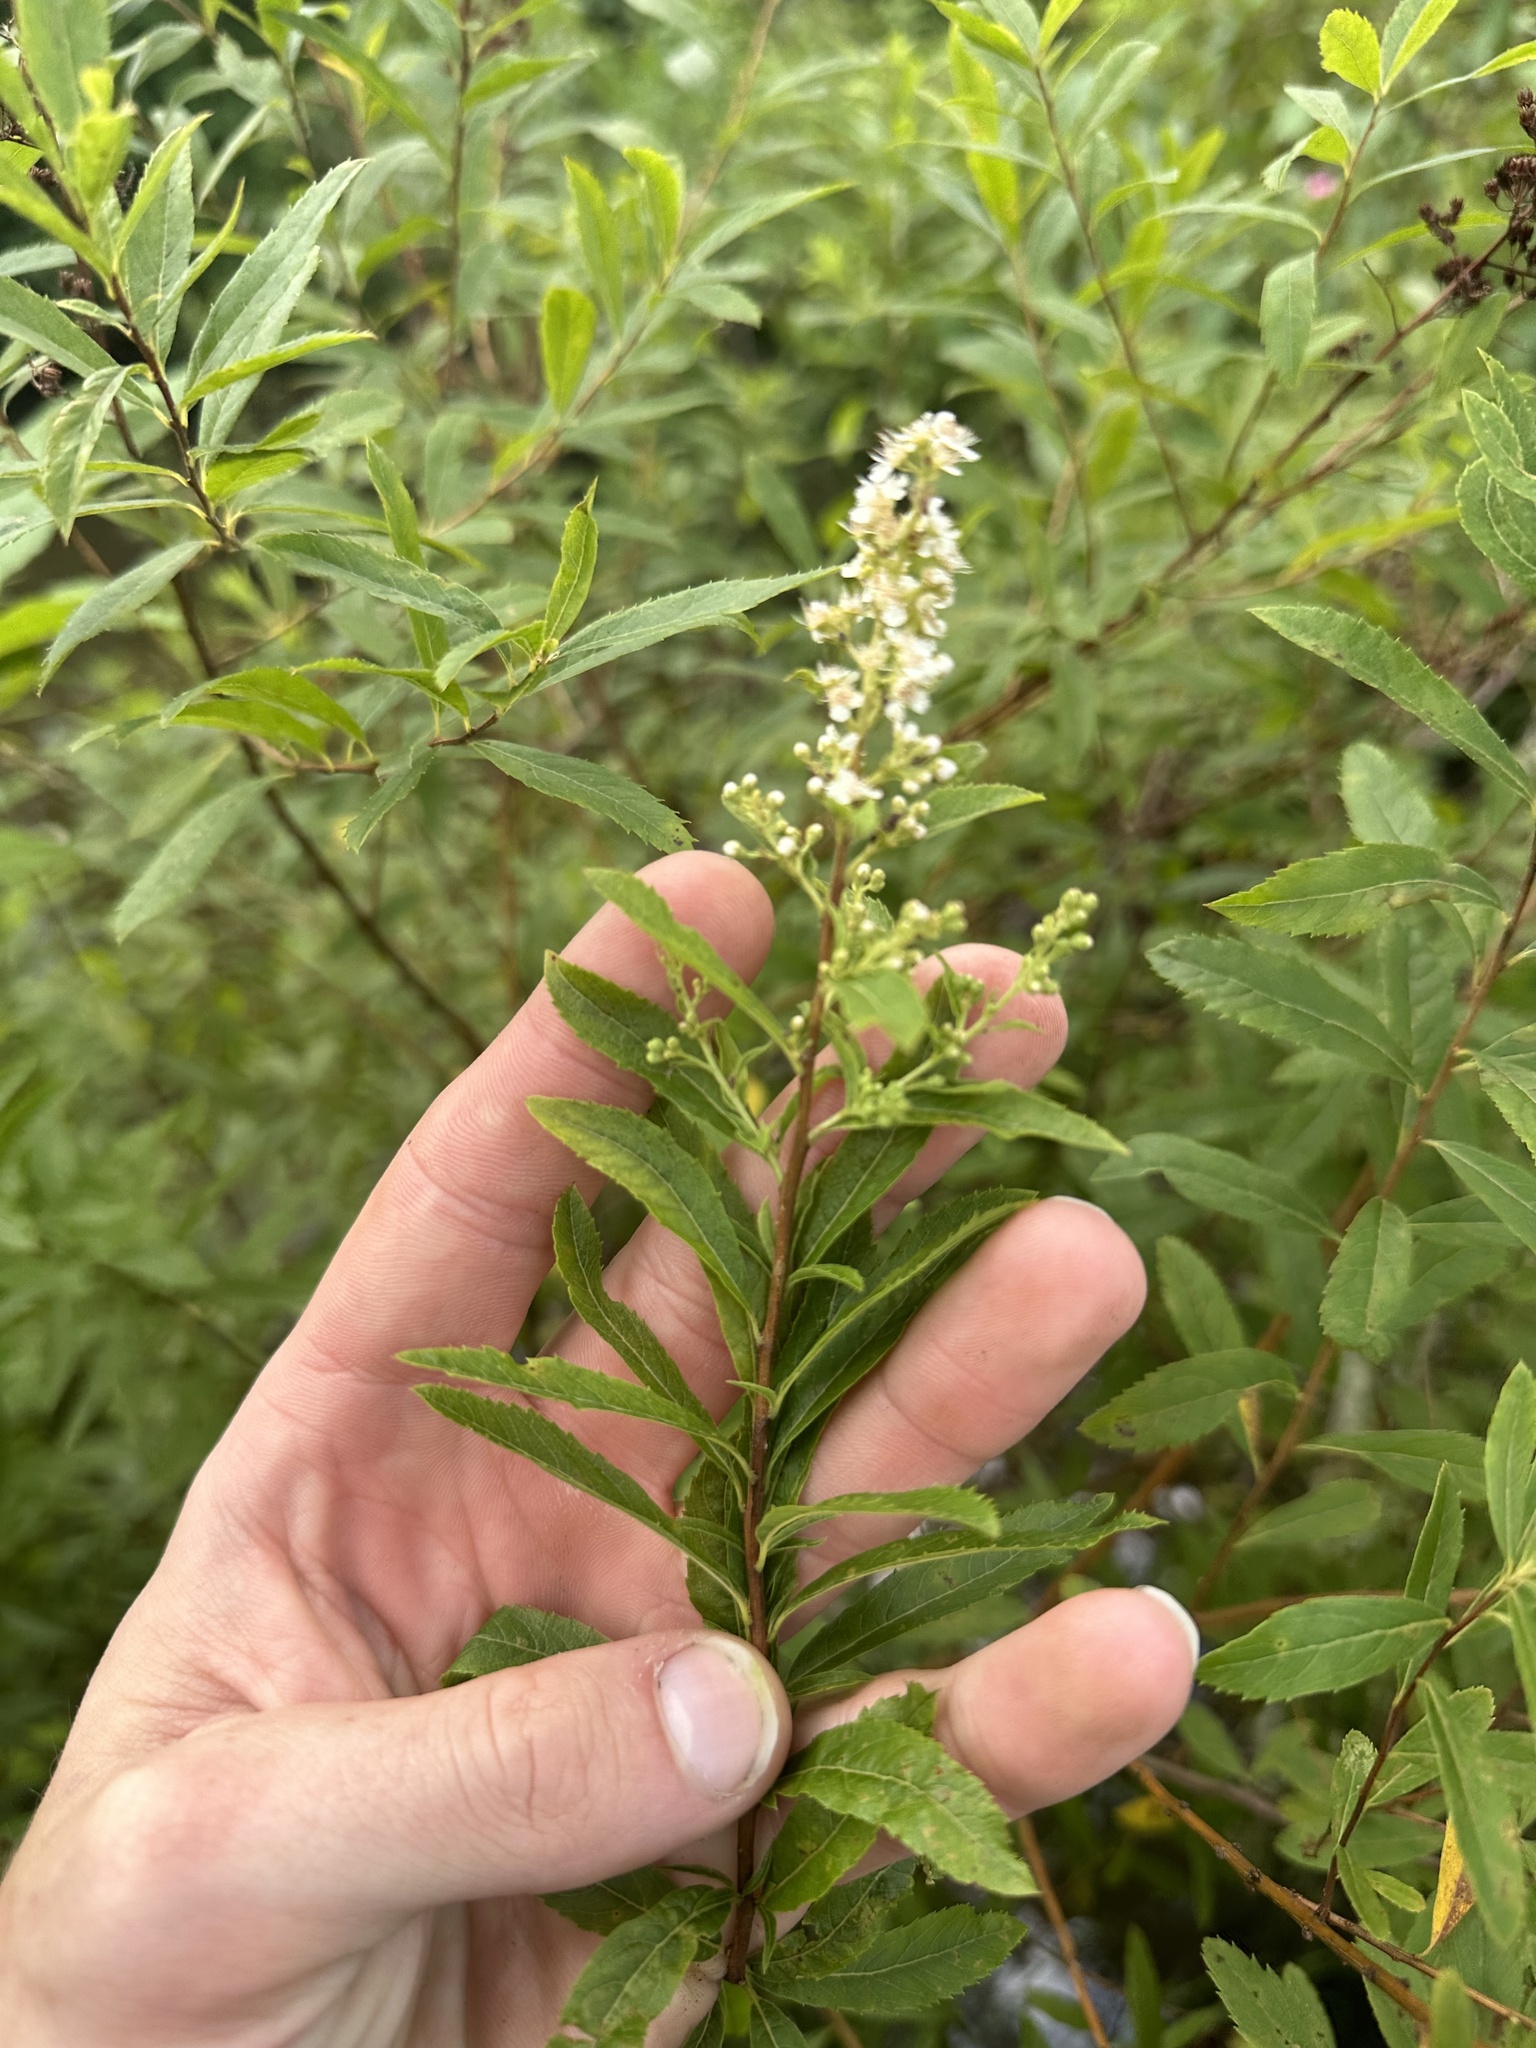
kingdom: Plantae
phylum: Tracheophyta
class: Magnoliopsida
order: Rosales
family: Rosaceae
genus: Spiraea
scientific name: Spiraea alba
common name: Pale bridewort
